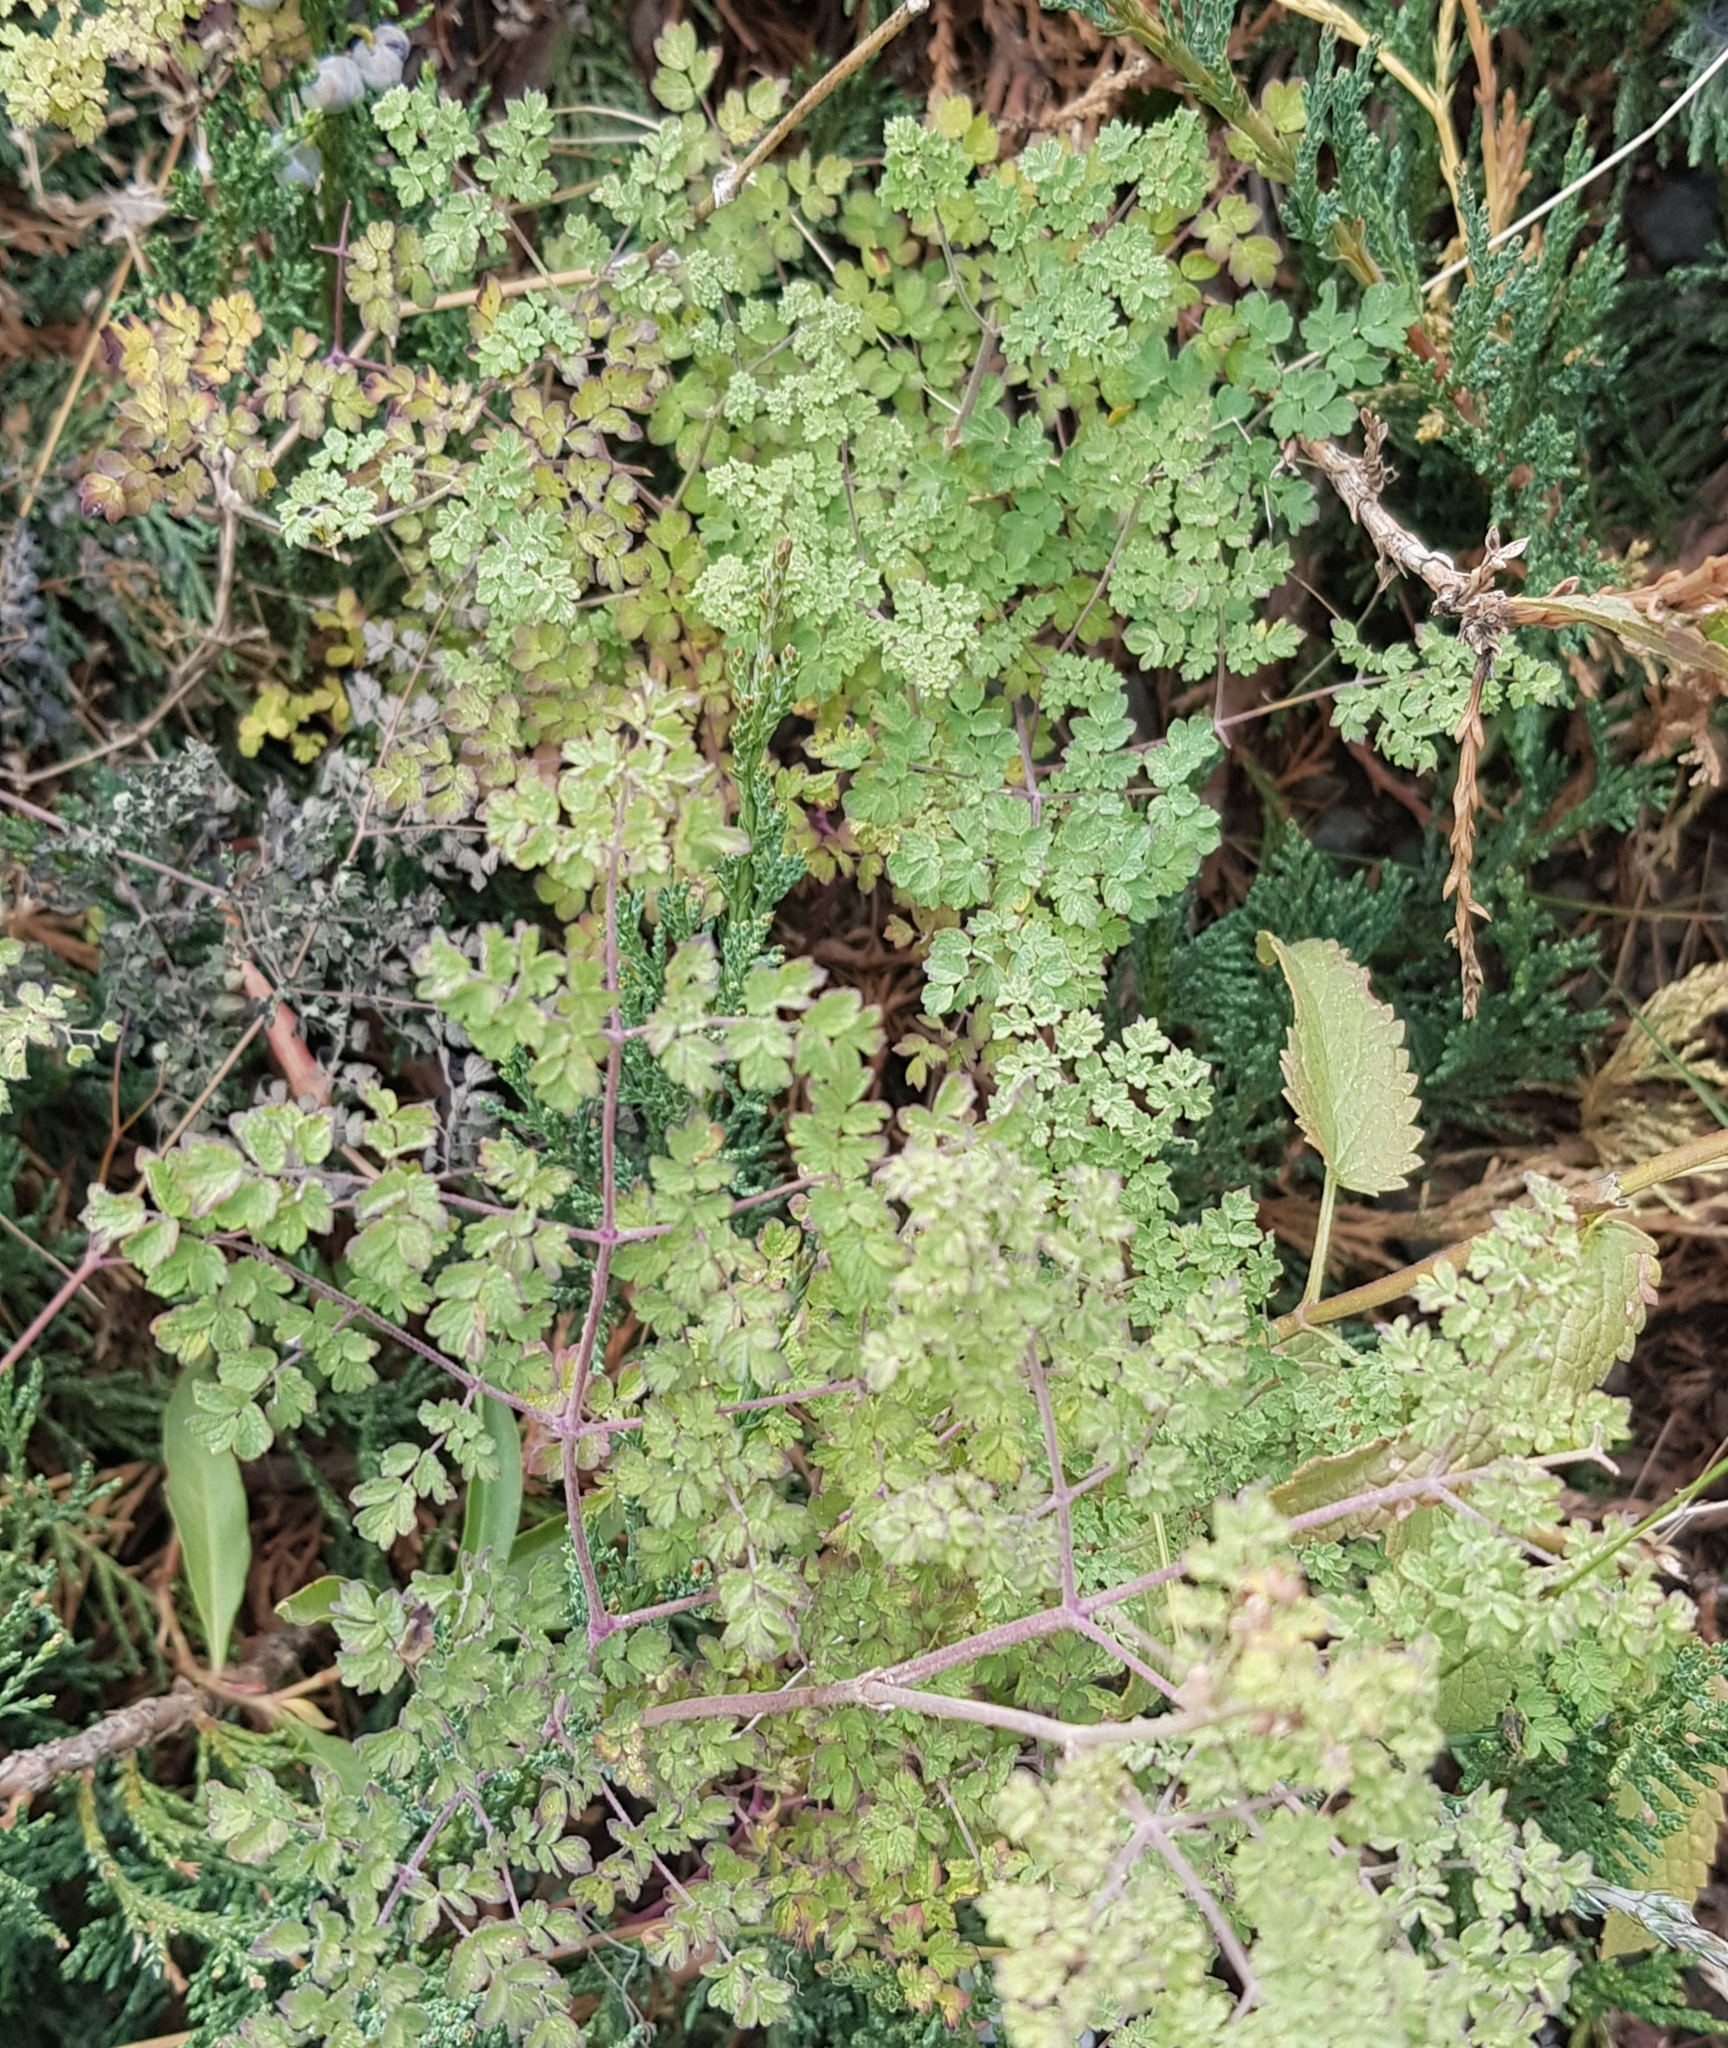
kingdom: Plantae
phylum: Tracheophyta
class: Magnoliopsida
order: Ranunculales
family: Ranunculaceae
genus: Thalictrum
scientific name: Thalictrum foetidum
